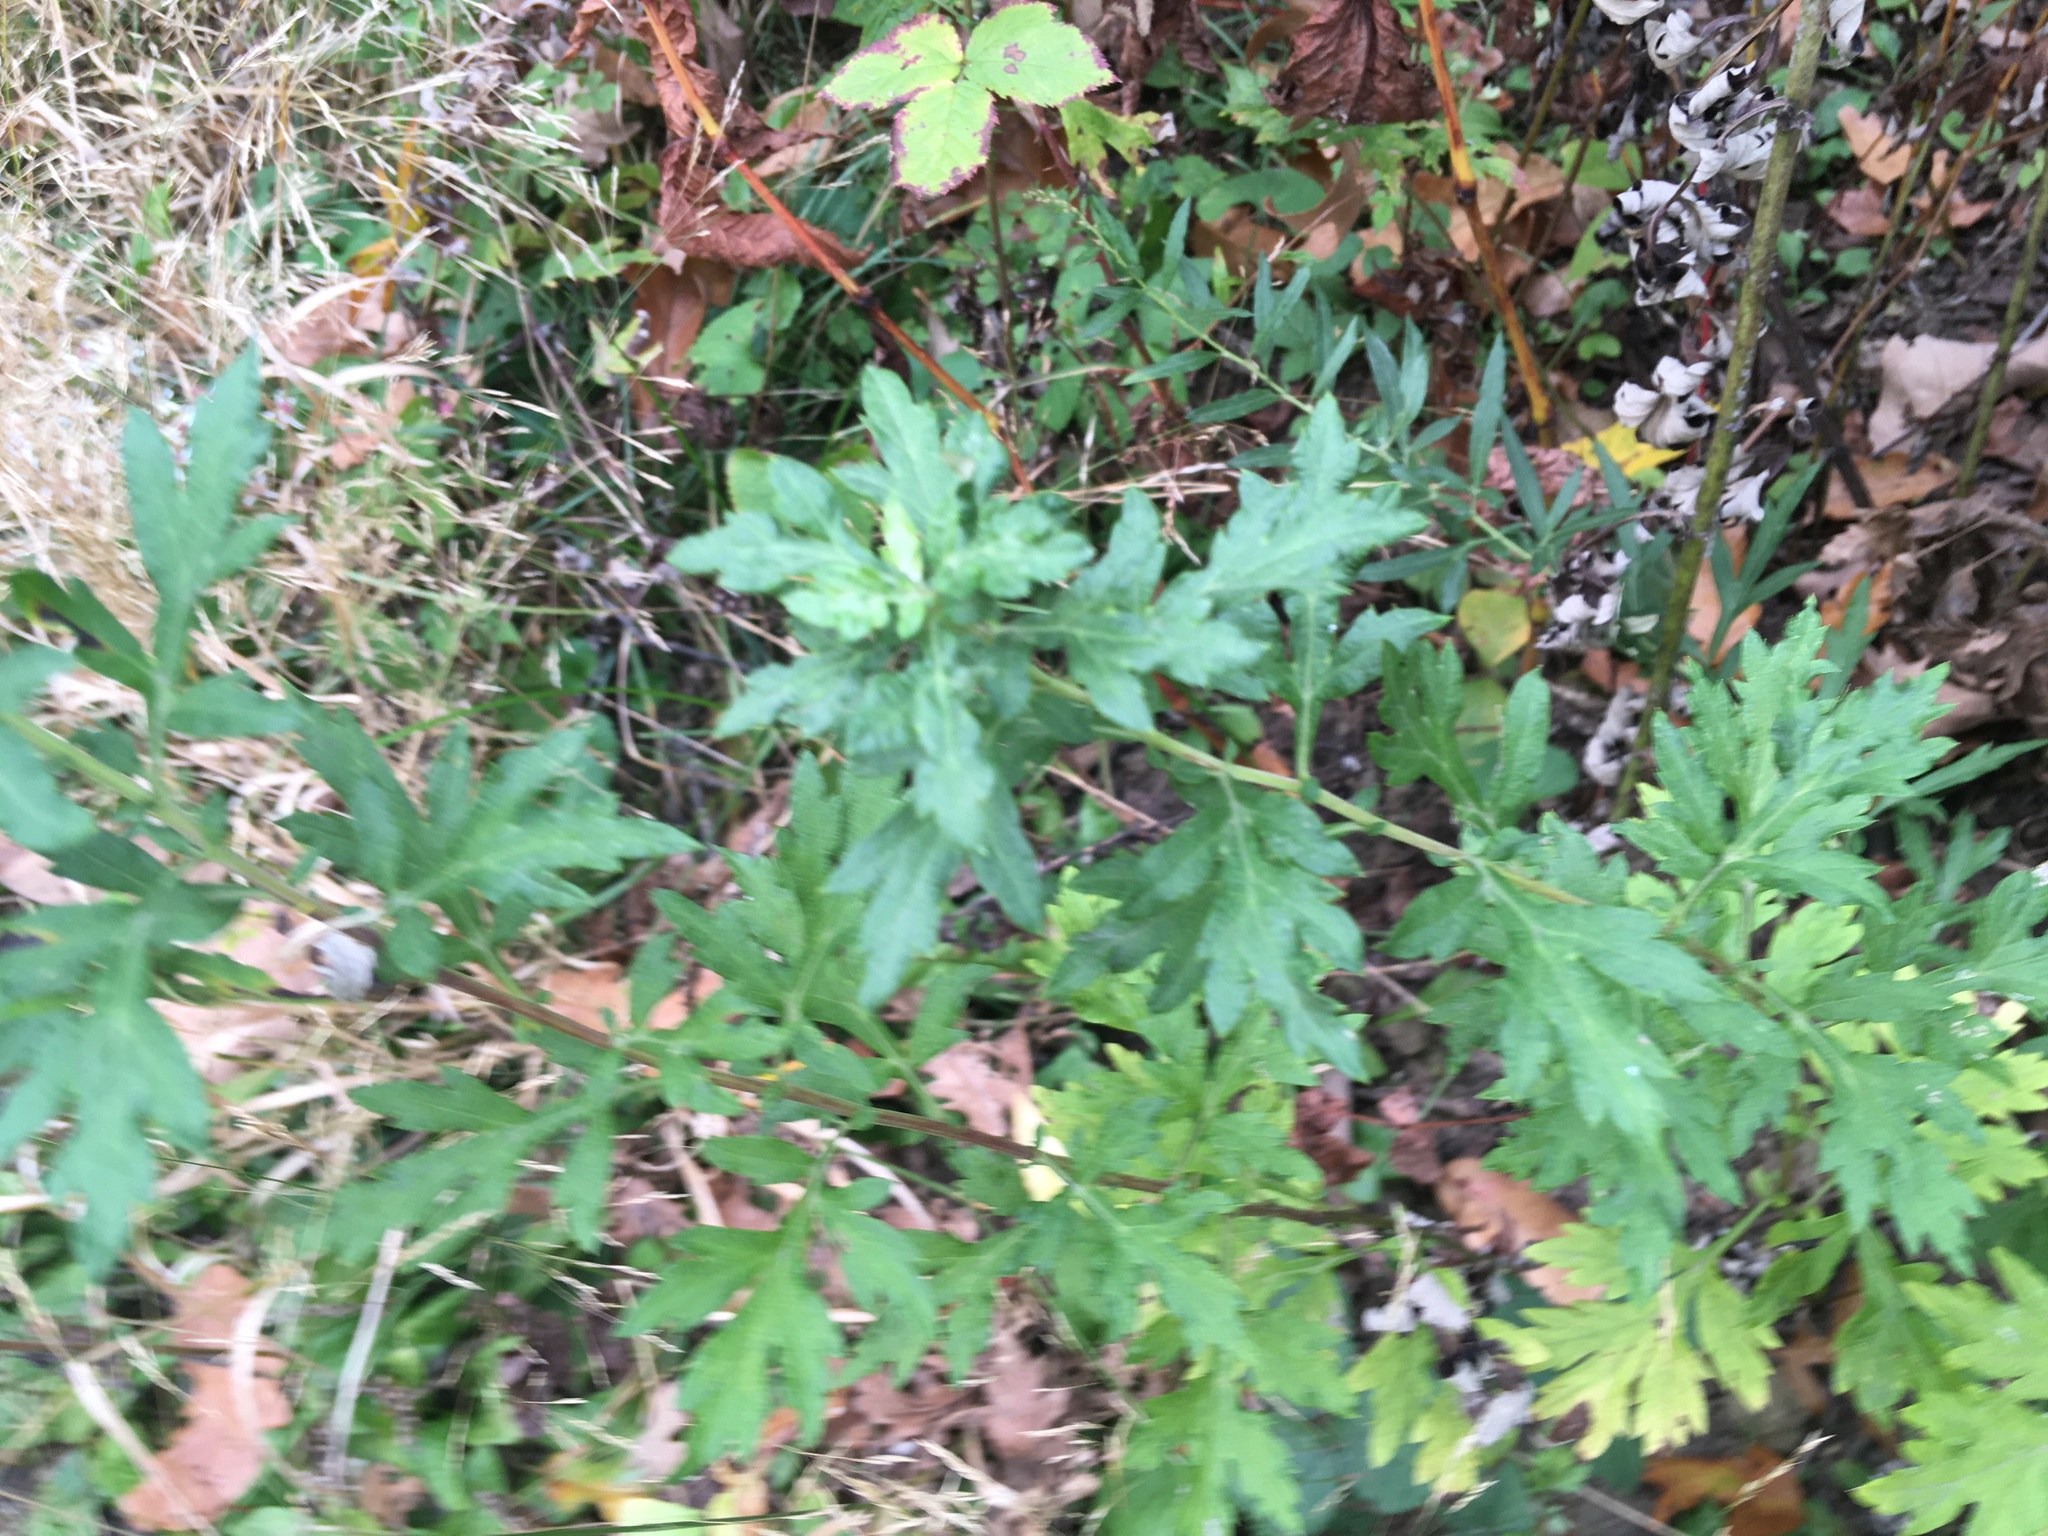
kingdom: Plantae
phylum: Tracheophyta
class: Magnoliopsida
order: Asterales
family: Asteraceae
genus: Artemisia
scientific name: Artemisia vulgaris
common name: Mugwort
